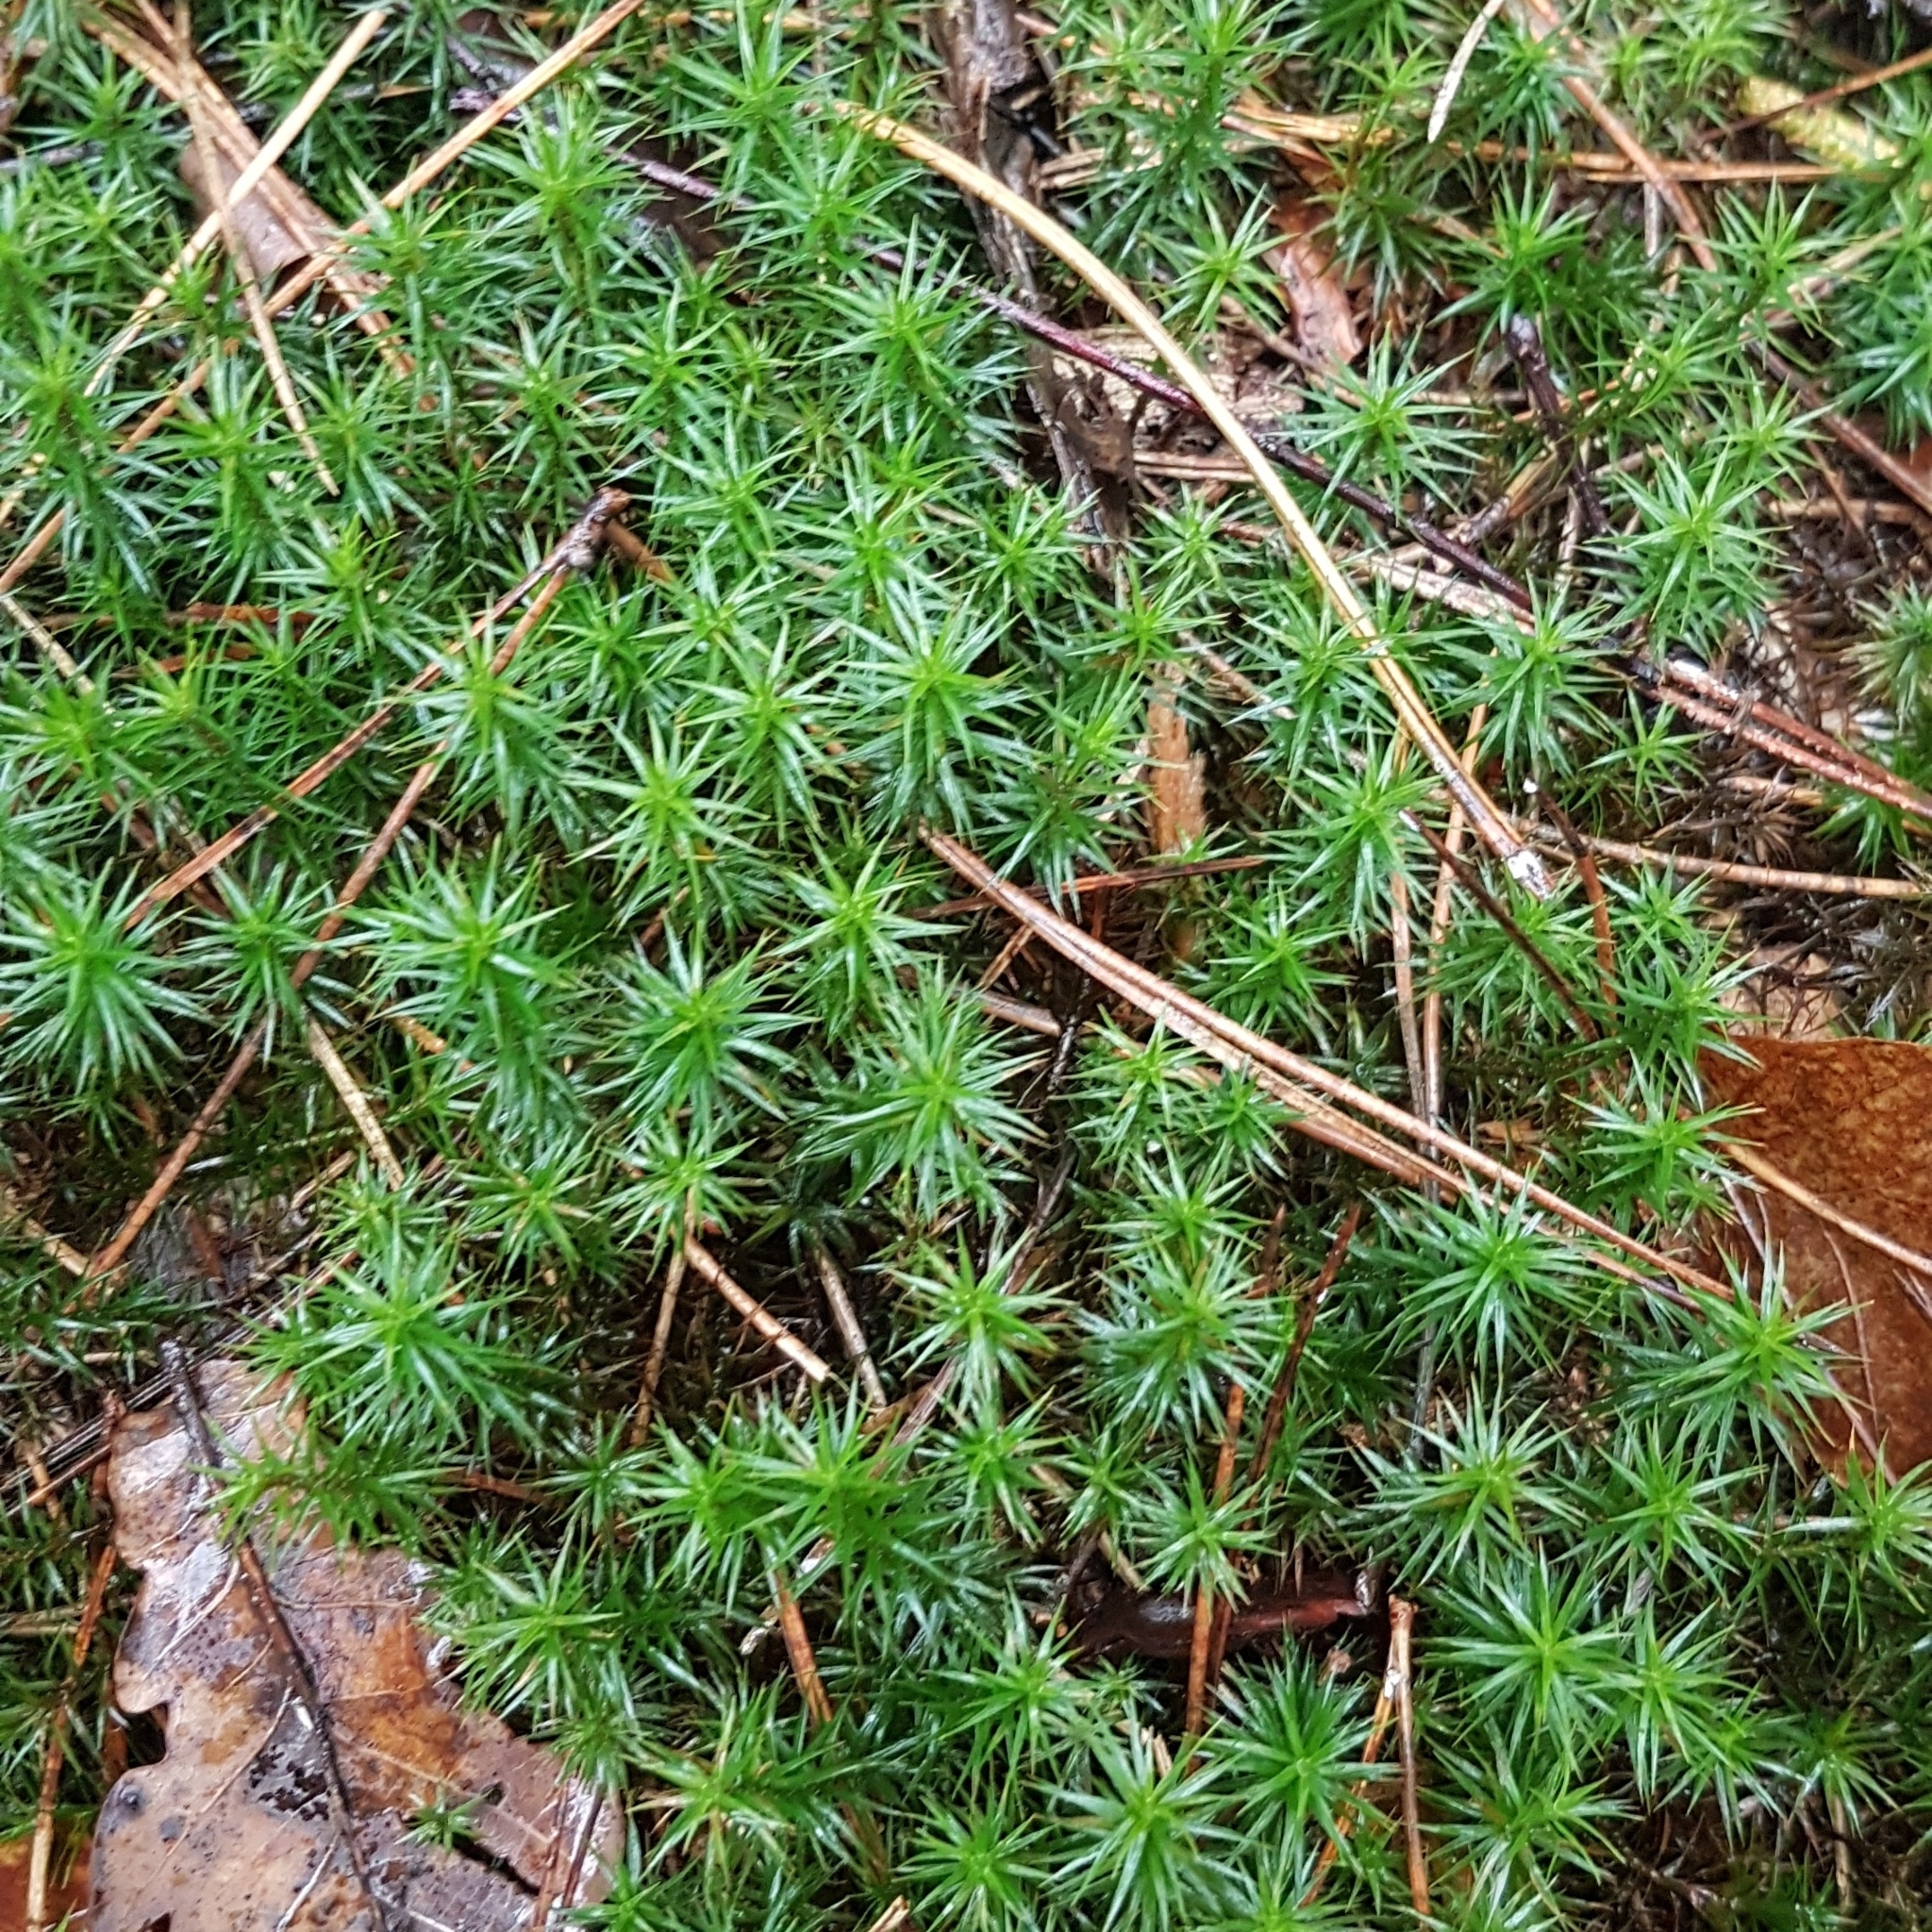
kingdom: Plantae
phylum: Bryophyta
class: Polytrichopsida
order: Polytrichales
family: Polytrichaceae
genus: Polytrichum
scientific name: Polytrichum formosum
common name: Bank haircap moss
